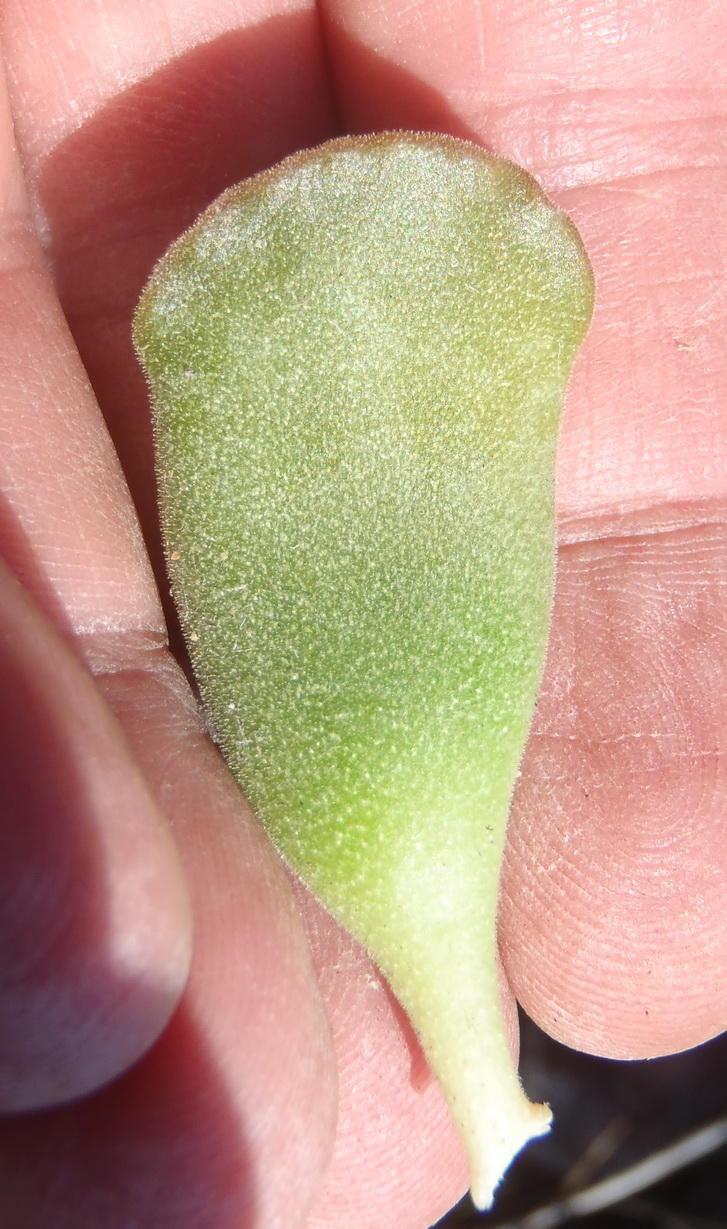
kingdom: Plantae
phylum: Tracheophyta
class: Magnoliopsida
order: Saxifragales
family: Crassulaceae
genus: Adromischus
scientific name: Adromischus cristatus
